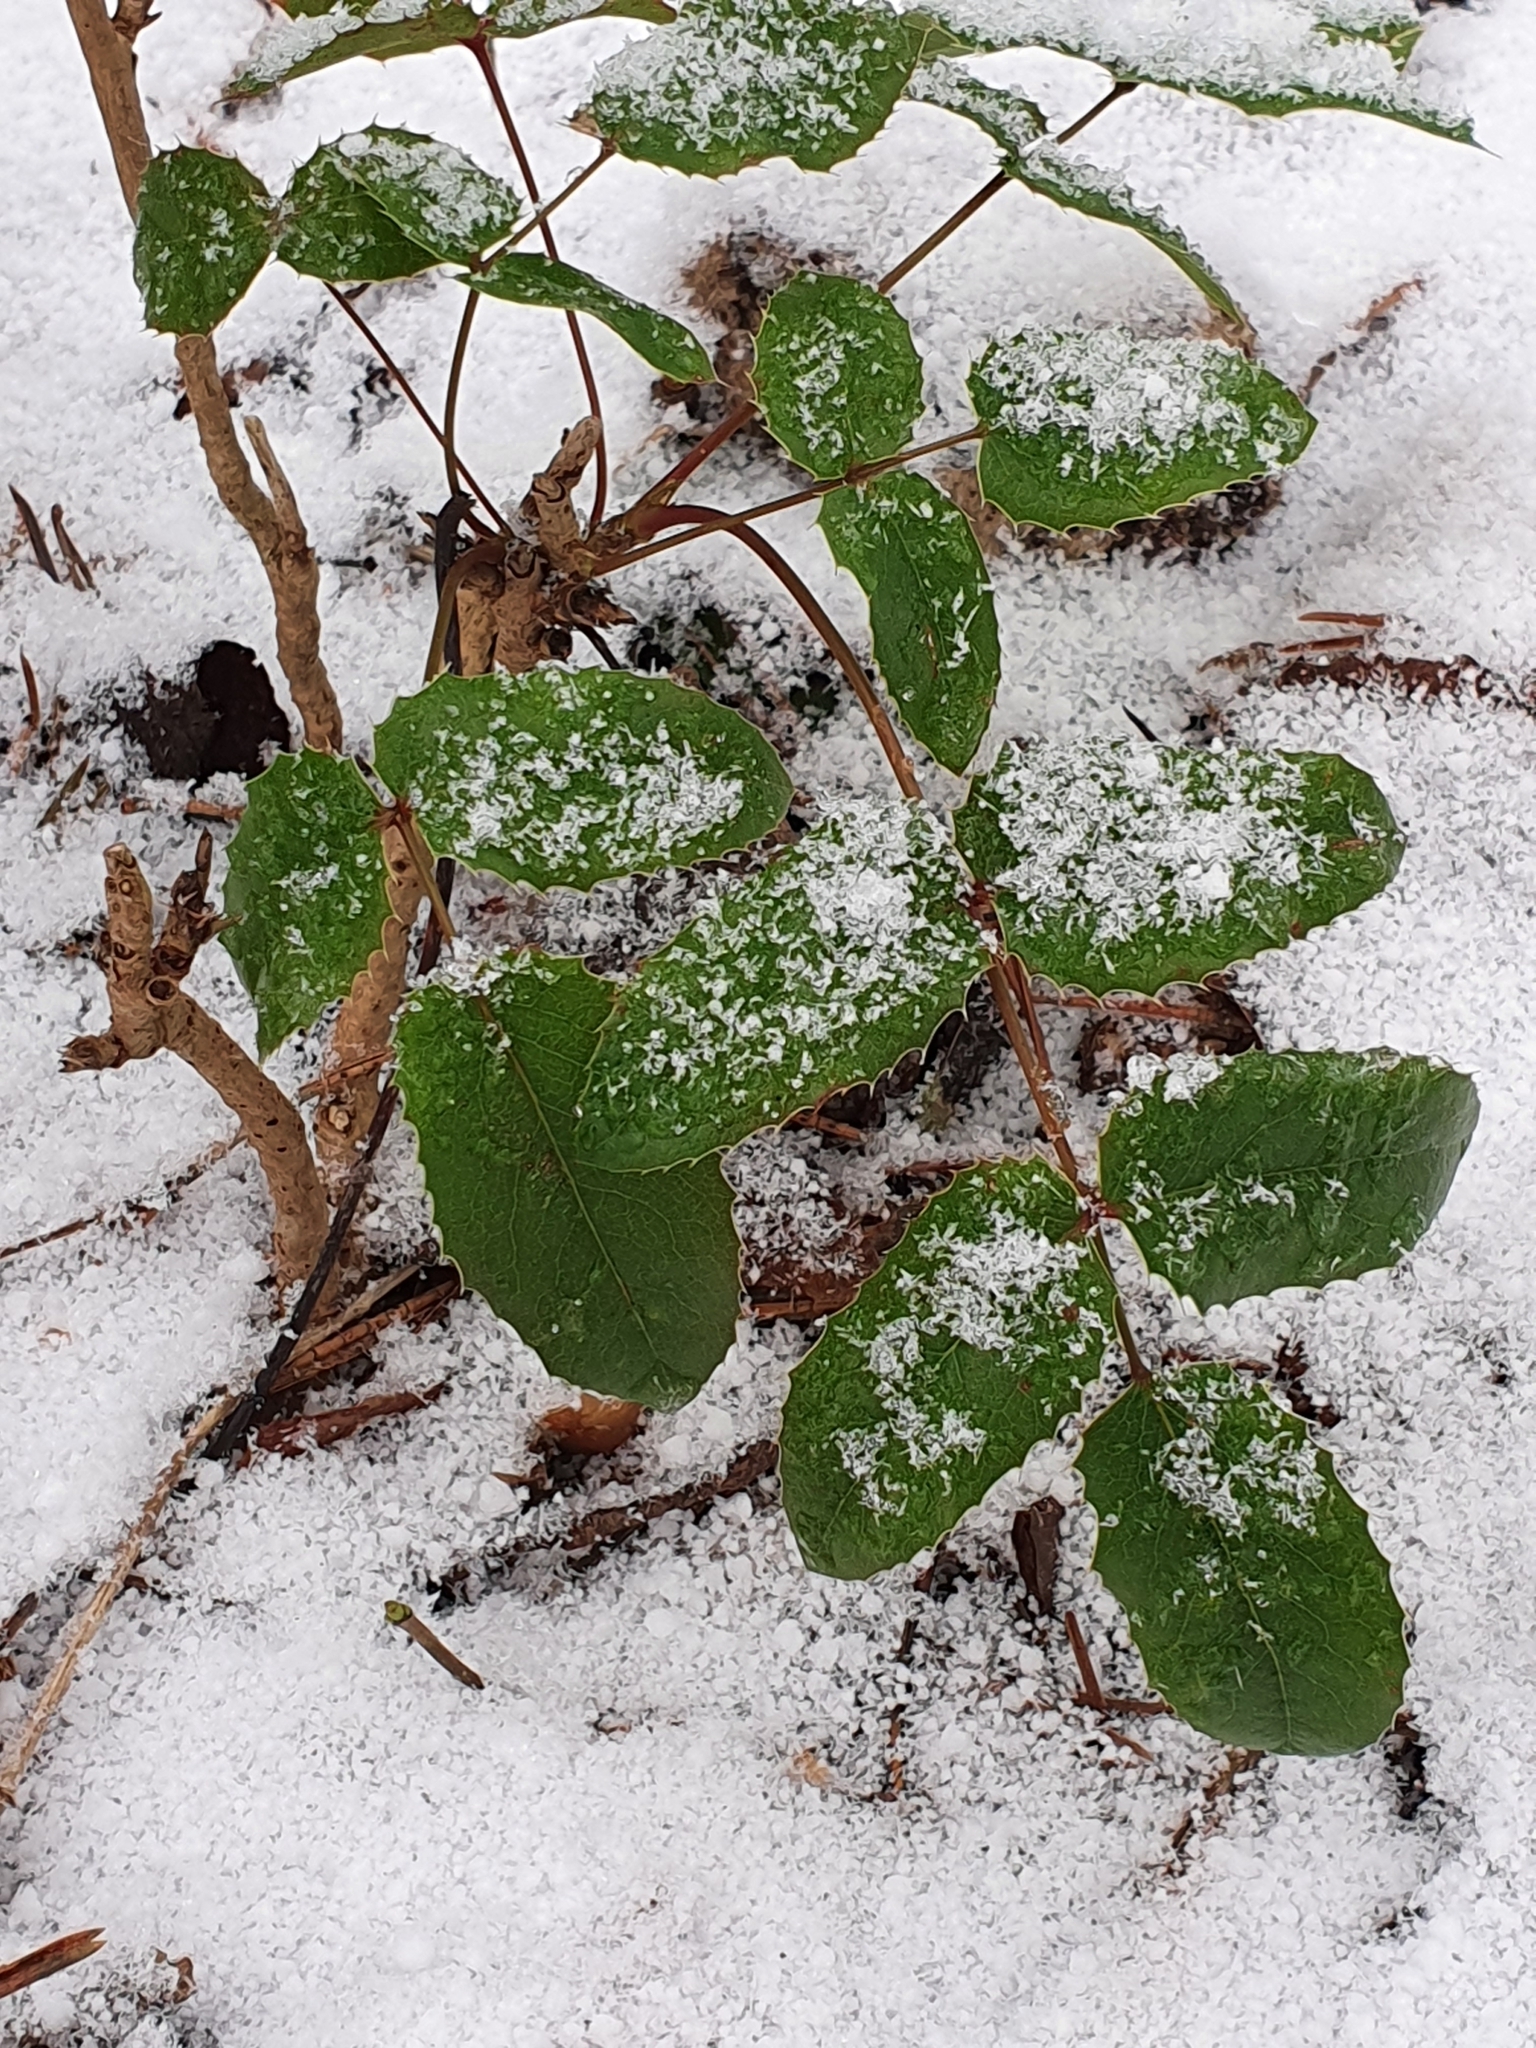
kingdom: Plantae
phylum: Tracheophyta
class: Magnoliopsida
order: Ranunculales
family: Berberidaceae
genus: Mahonia
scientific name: Mahonia aquifolium
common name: Oregon-grape
